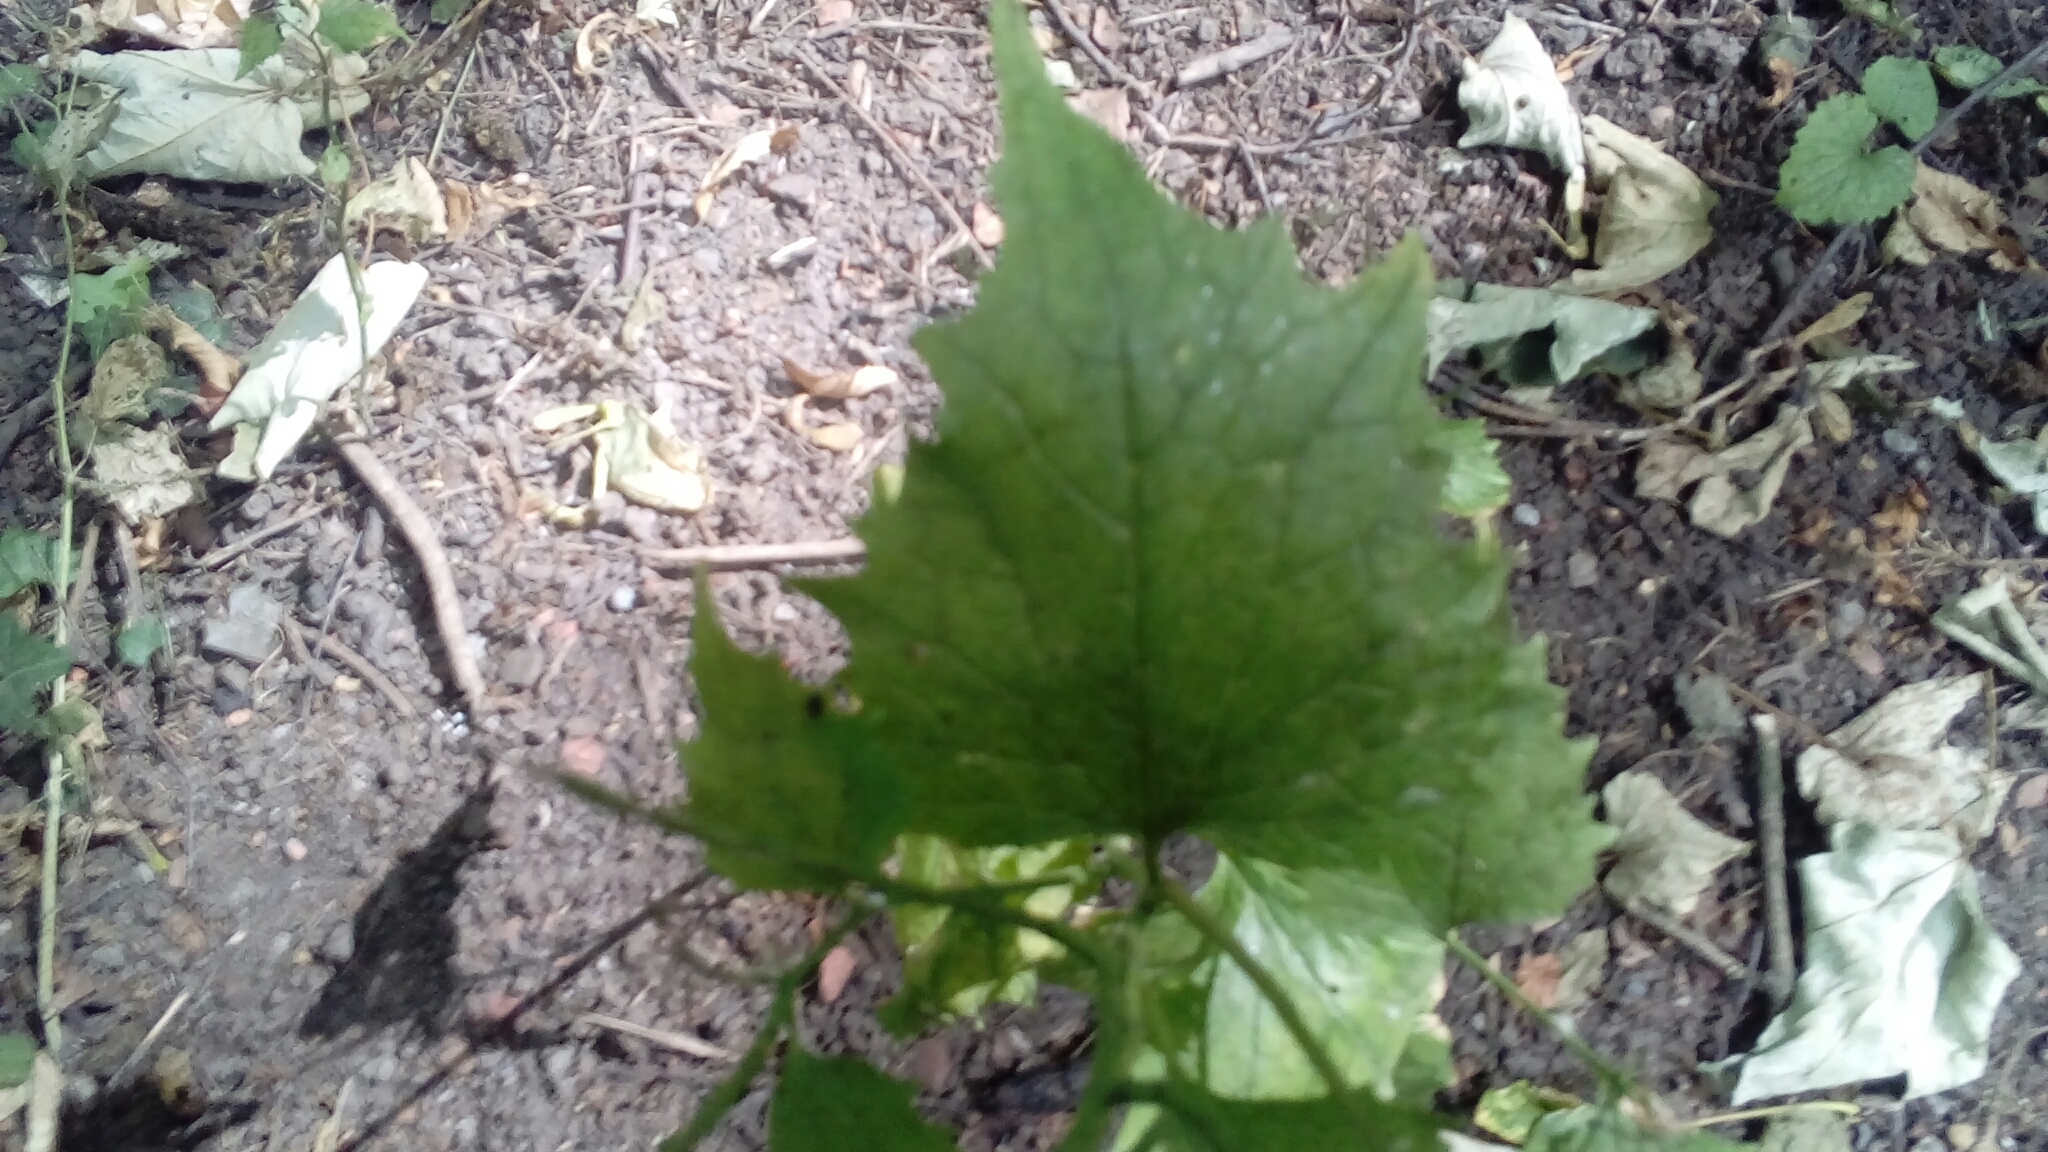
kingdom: Plantae
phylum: Tracheophyta
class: Magnoliopsida
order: Brassicales
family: Brassicaceae
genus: Alliaria
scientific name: Alliaria petiolata
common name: Garlic mustard
